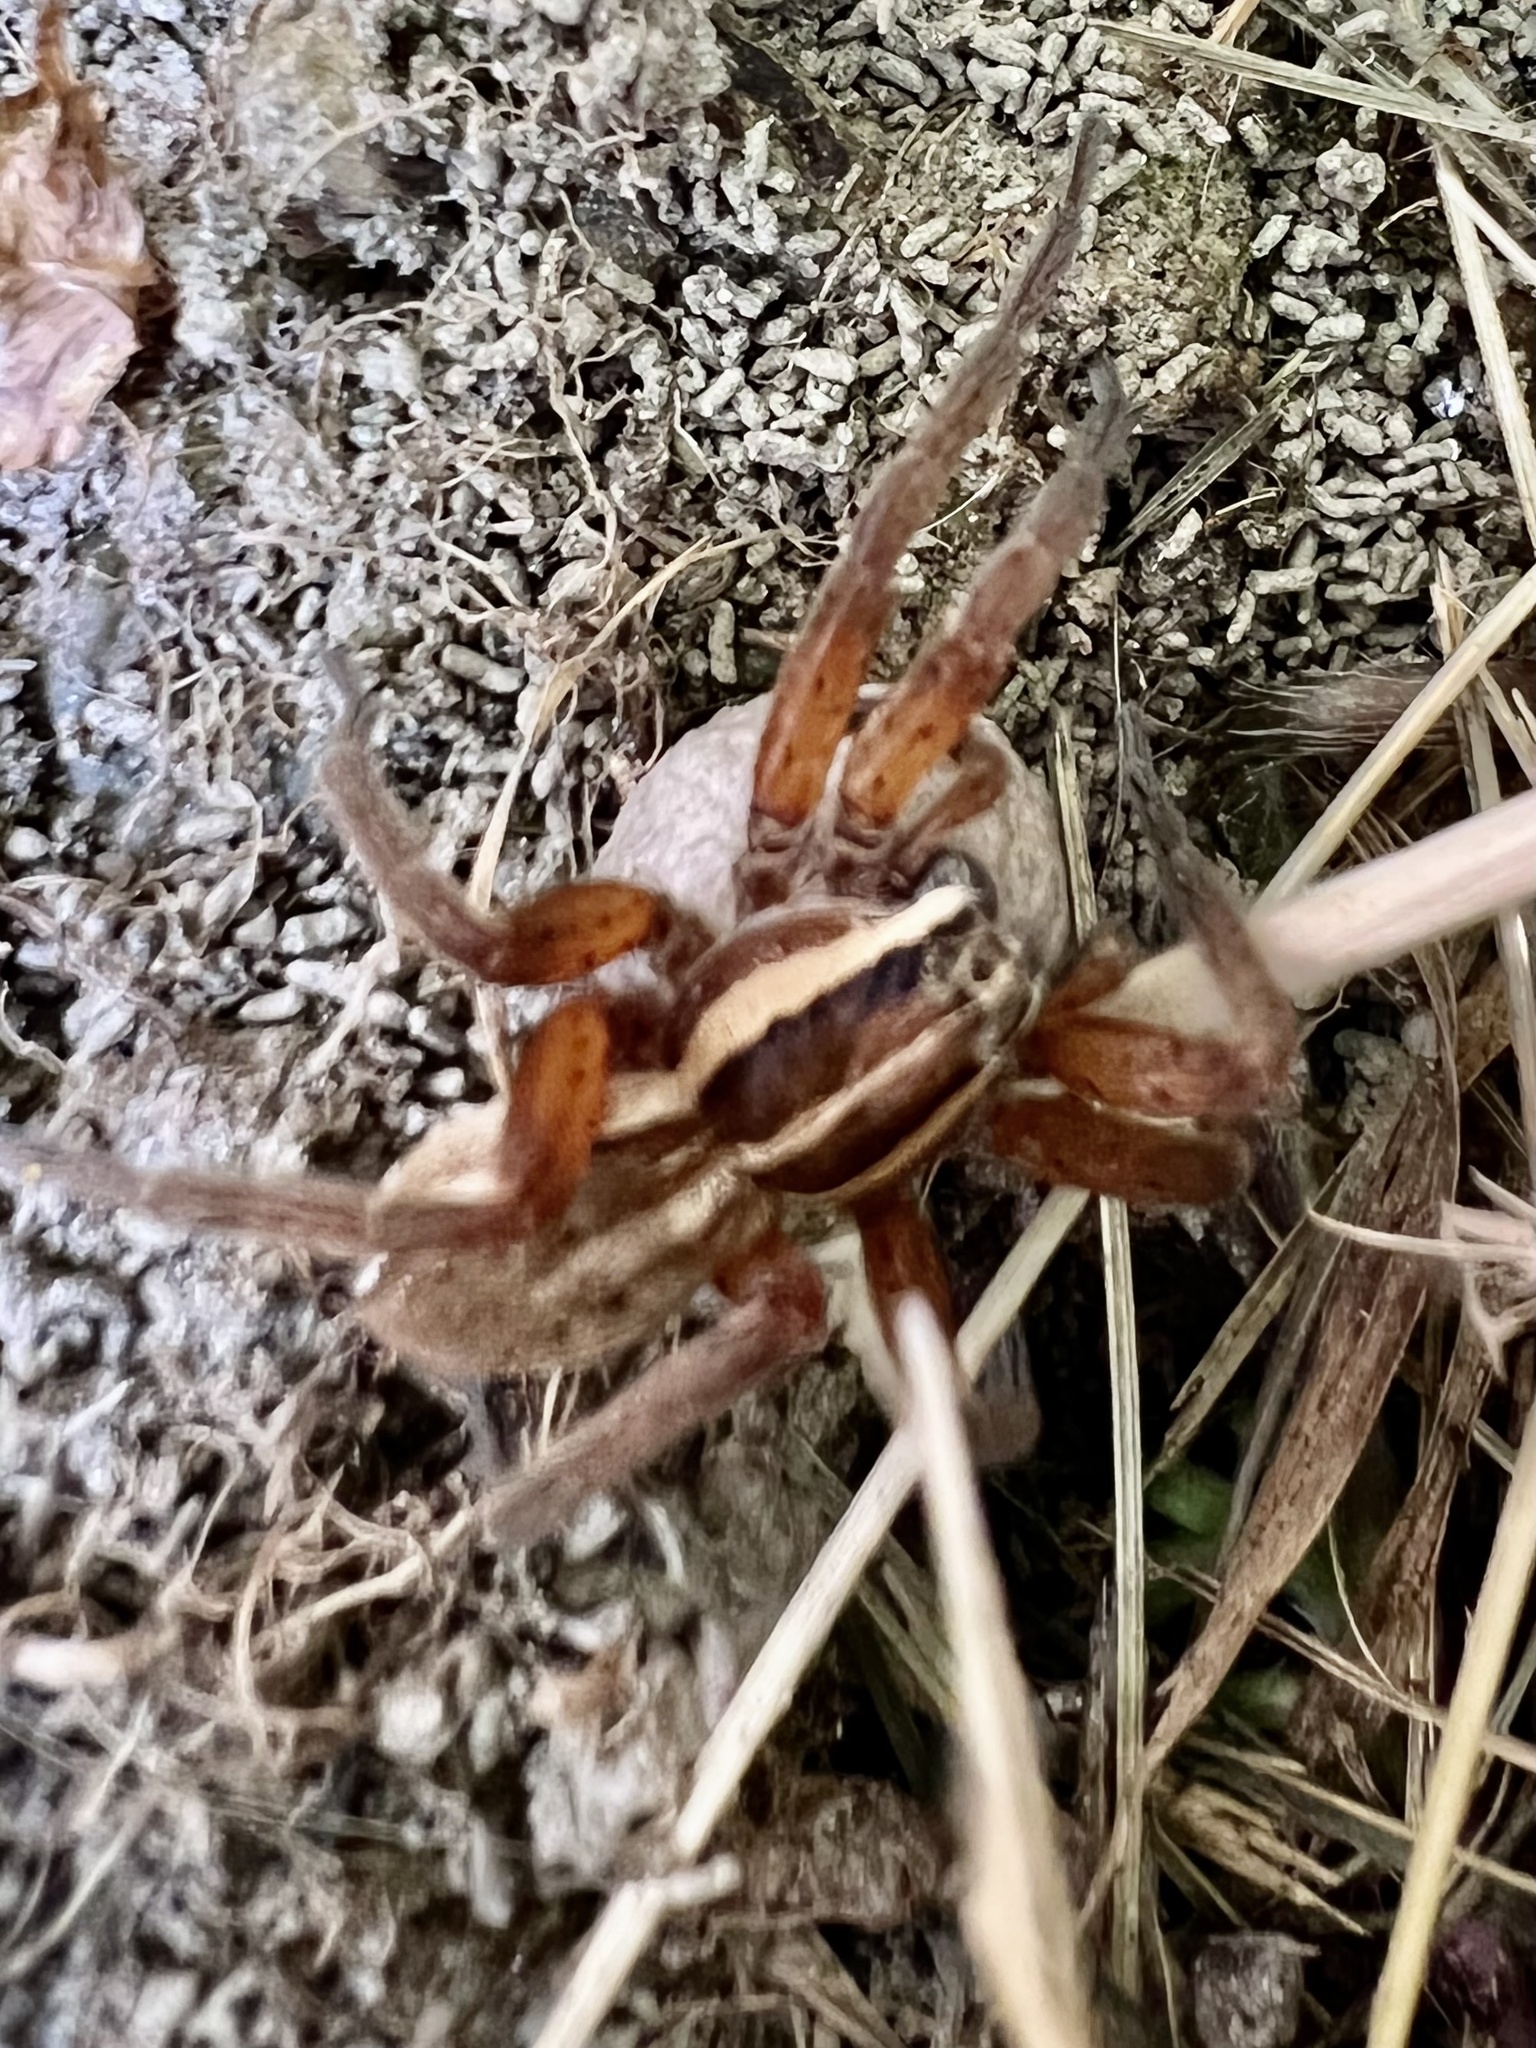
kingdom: Animalia
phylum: Arthropoda
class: Arachnida
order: Araneae
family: Pisauridae
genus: Dolomedes
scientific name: Dolomedes minor
